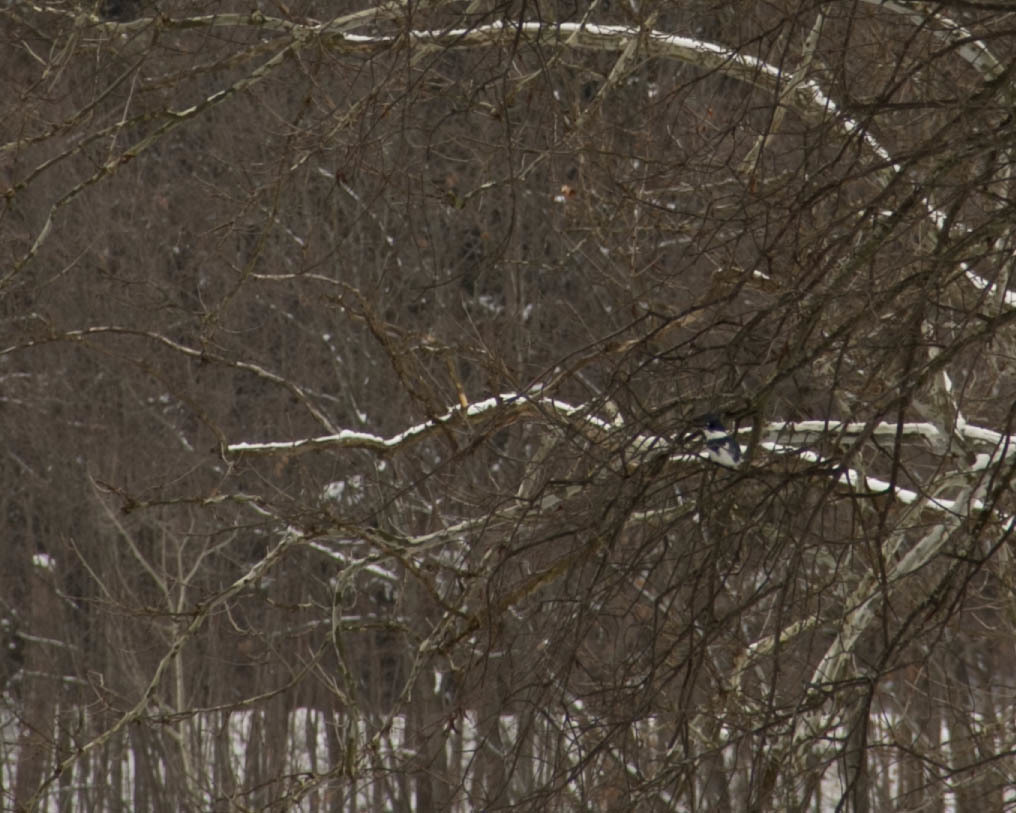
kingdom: Animalia
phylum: Chordata
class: Aves
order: Coraciiformes
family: Alcedinidae
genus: Megaceryle
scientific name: Megaceryle alcyon
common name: Belted kingfisher
